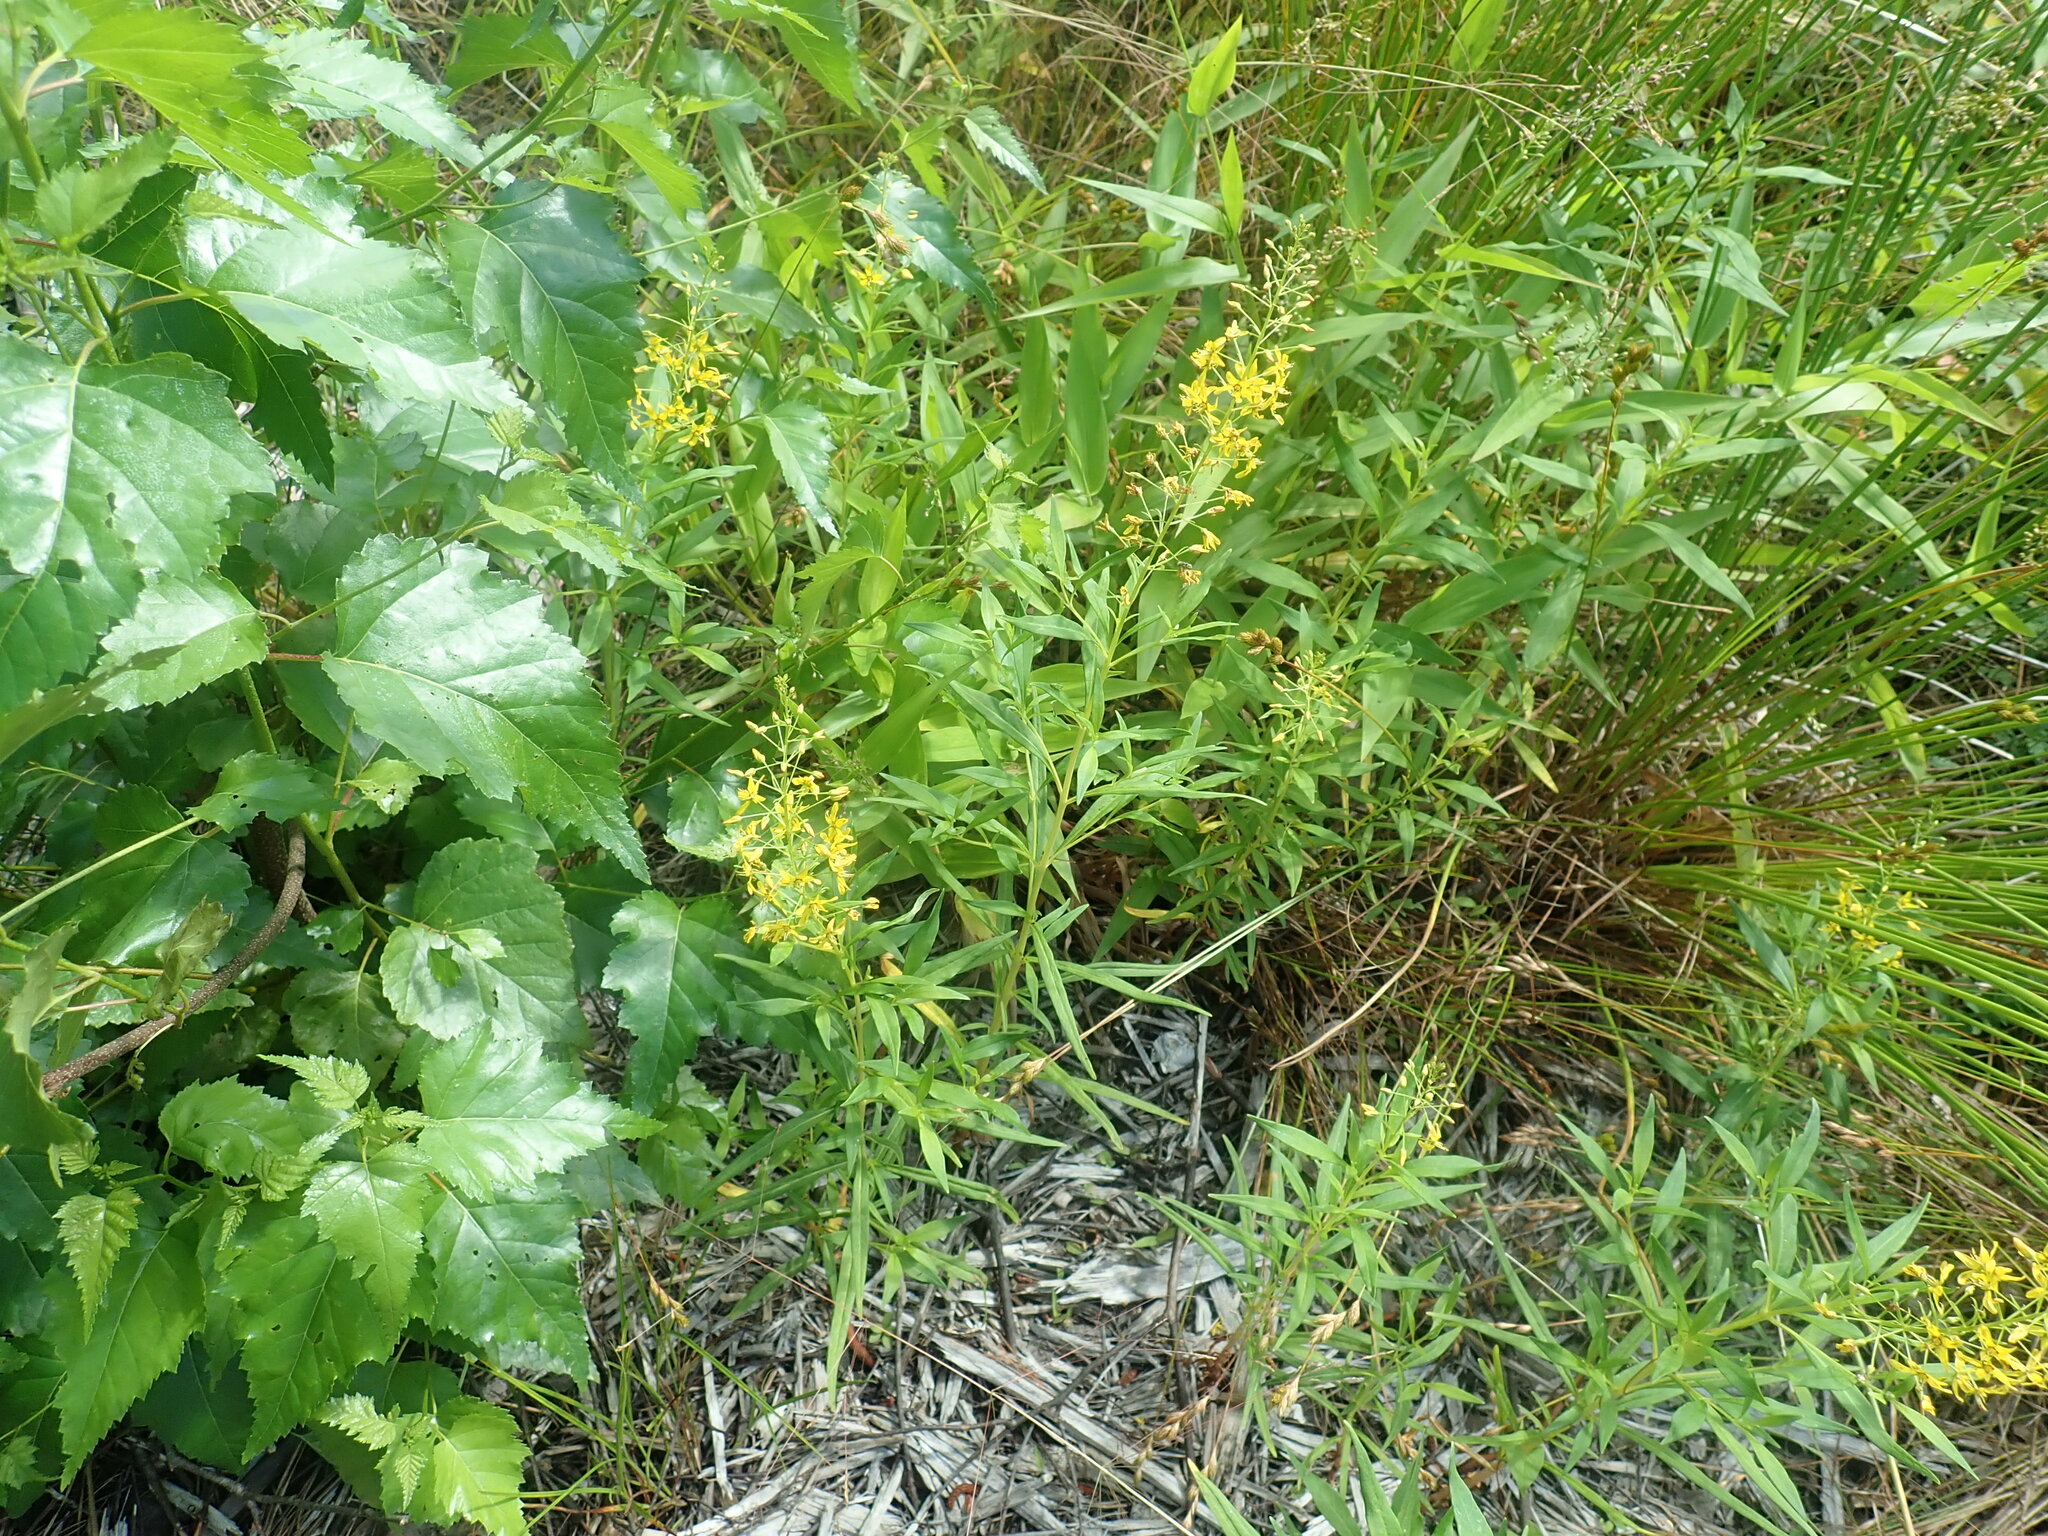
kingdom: Plantae
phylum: Tracheophyta
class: Magnoliopsida
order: Ericales
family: Primulaceae
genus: Lysimachia
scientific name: Lysimachia terrestris
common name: Lake loosestrife
